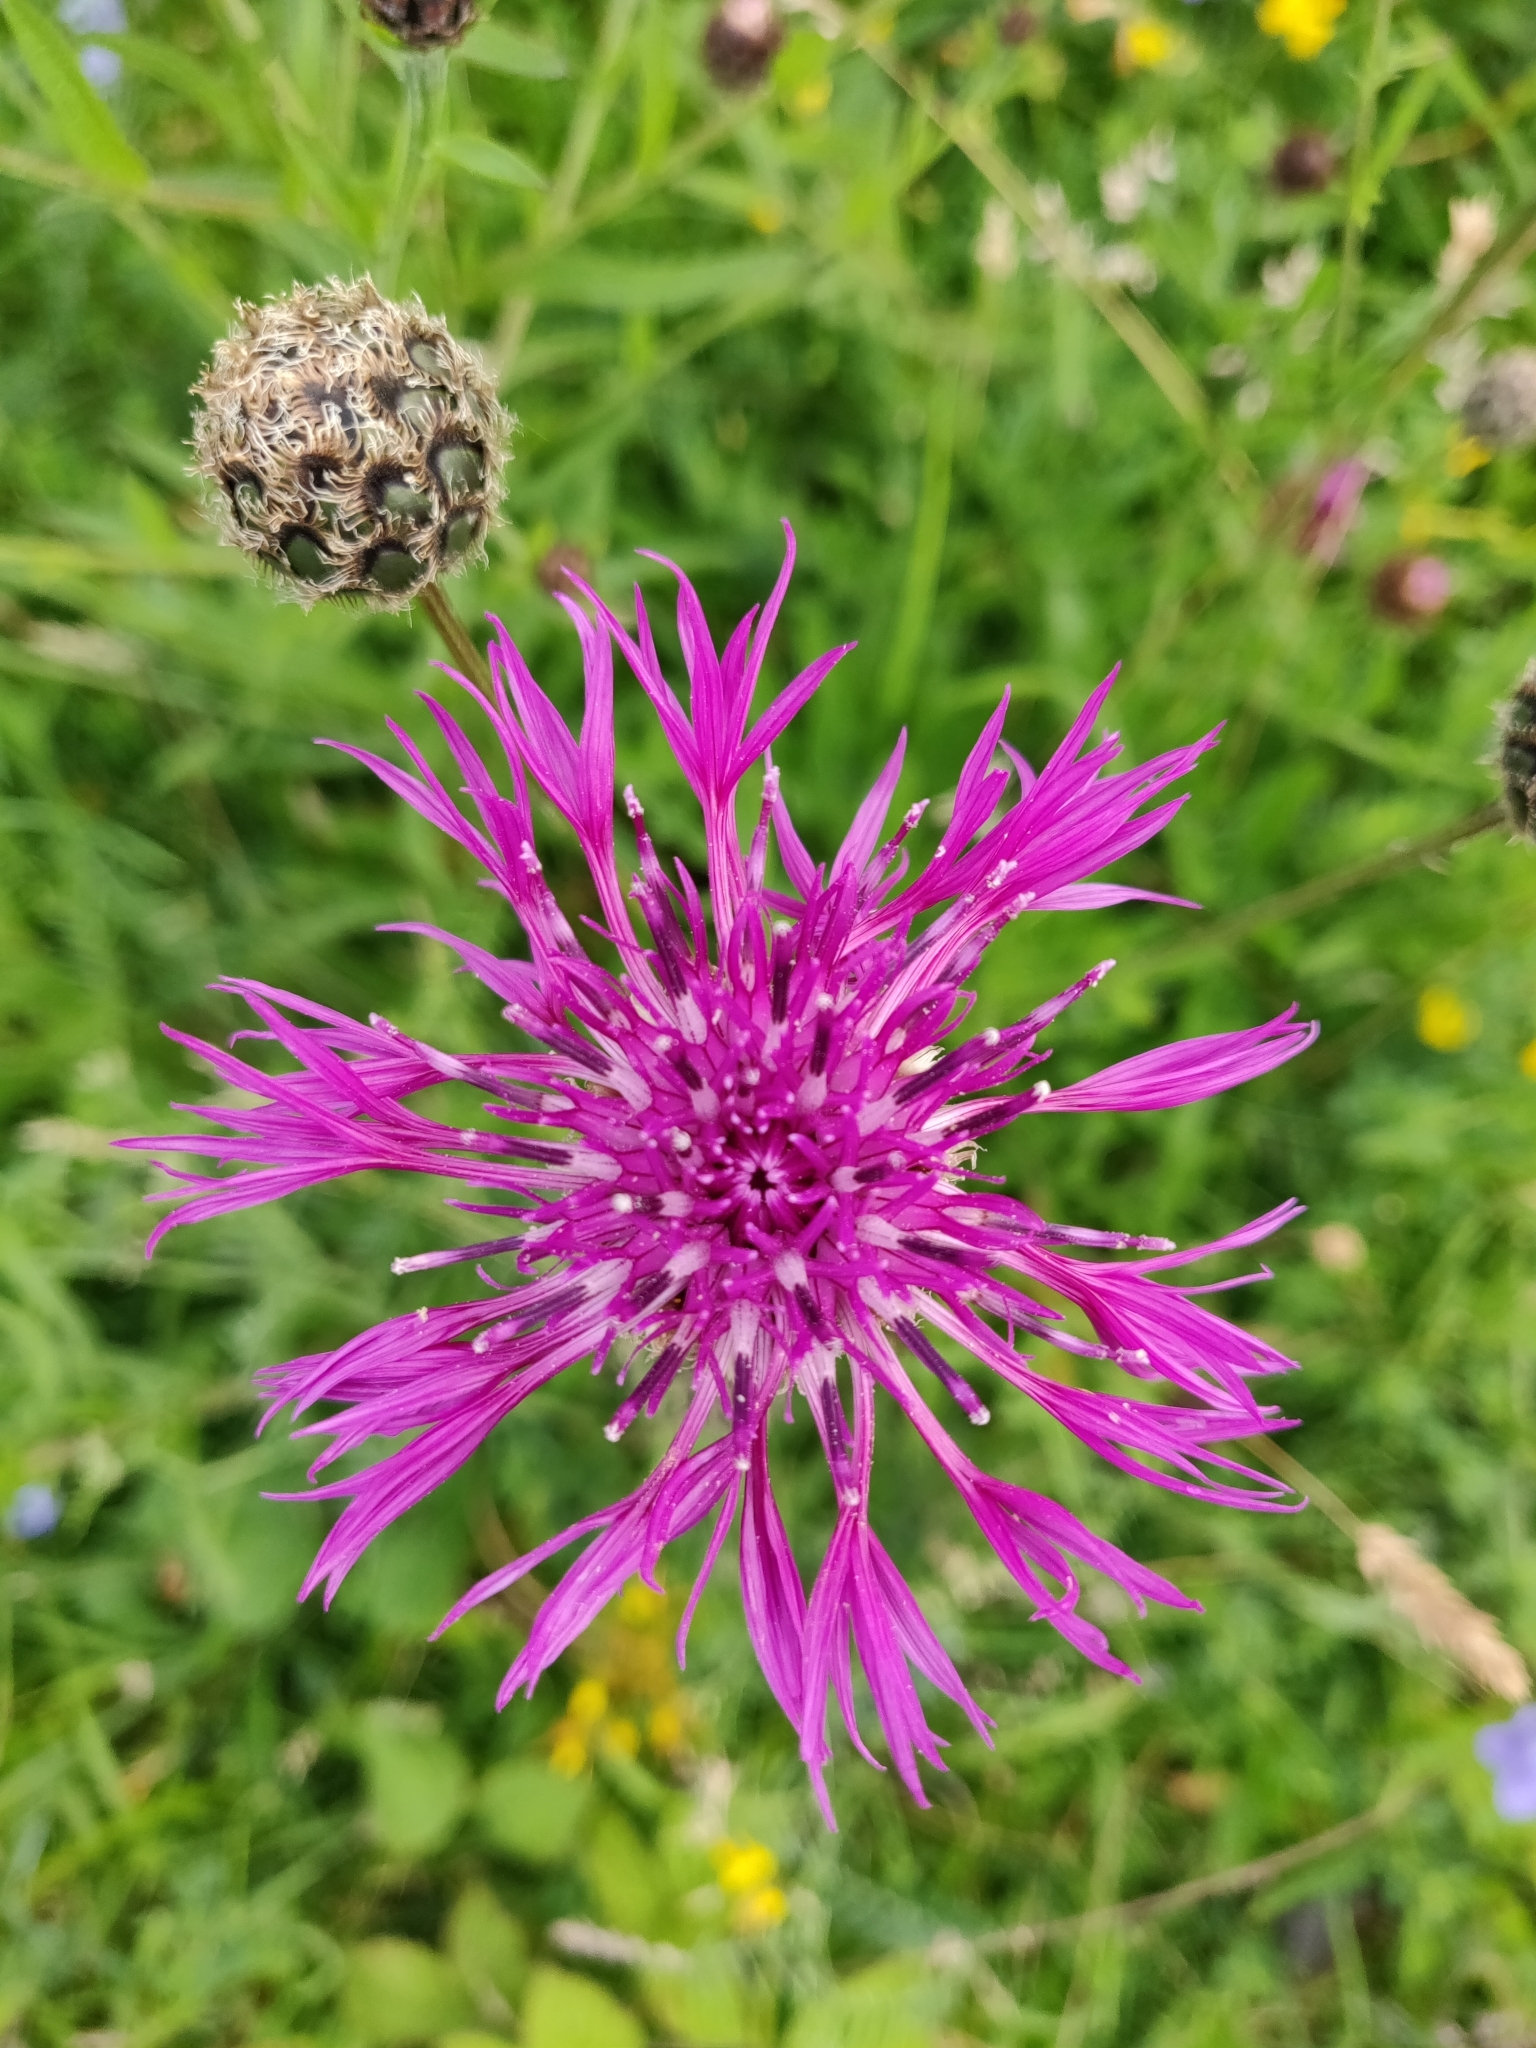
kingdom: Plantae
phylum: Tracheophyta
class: Magnoliopsida
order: Asterales
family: Asteraceae
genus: Centaurea
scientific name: Centaurea scabiosa
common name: Greater knapweed
